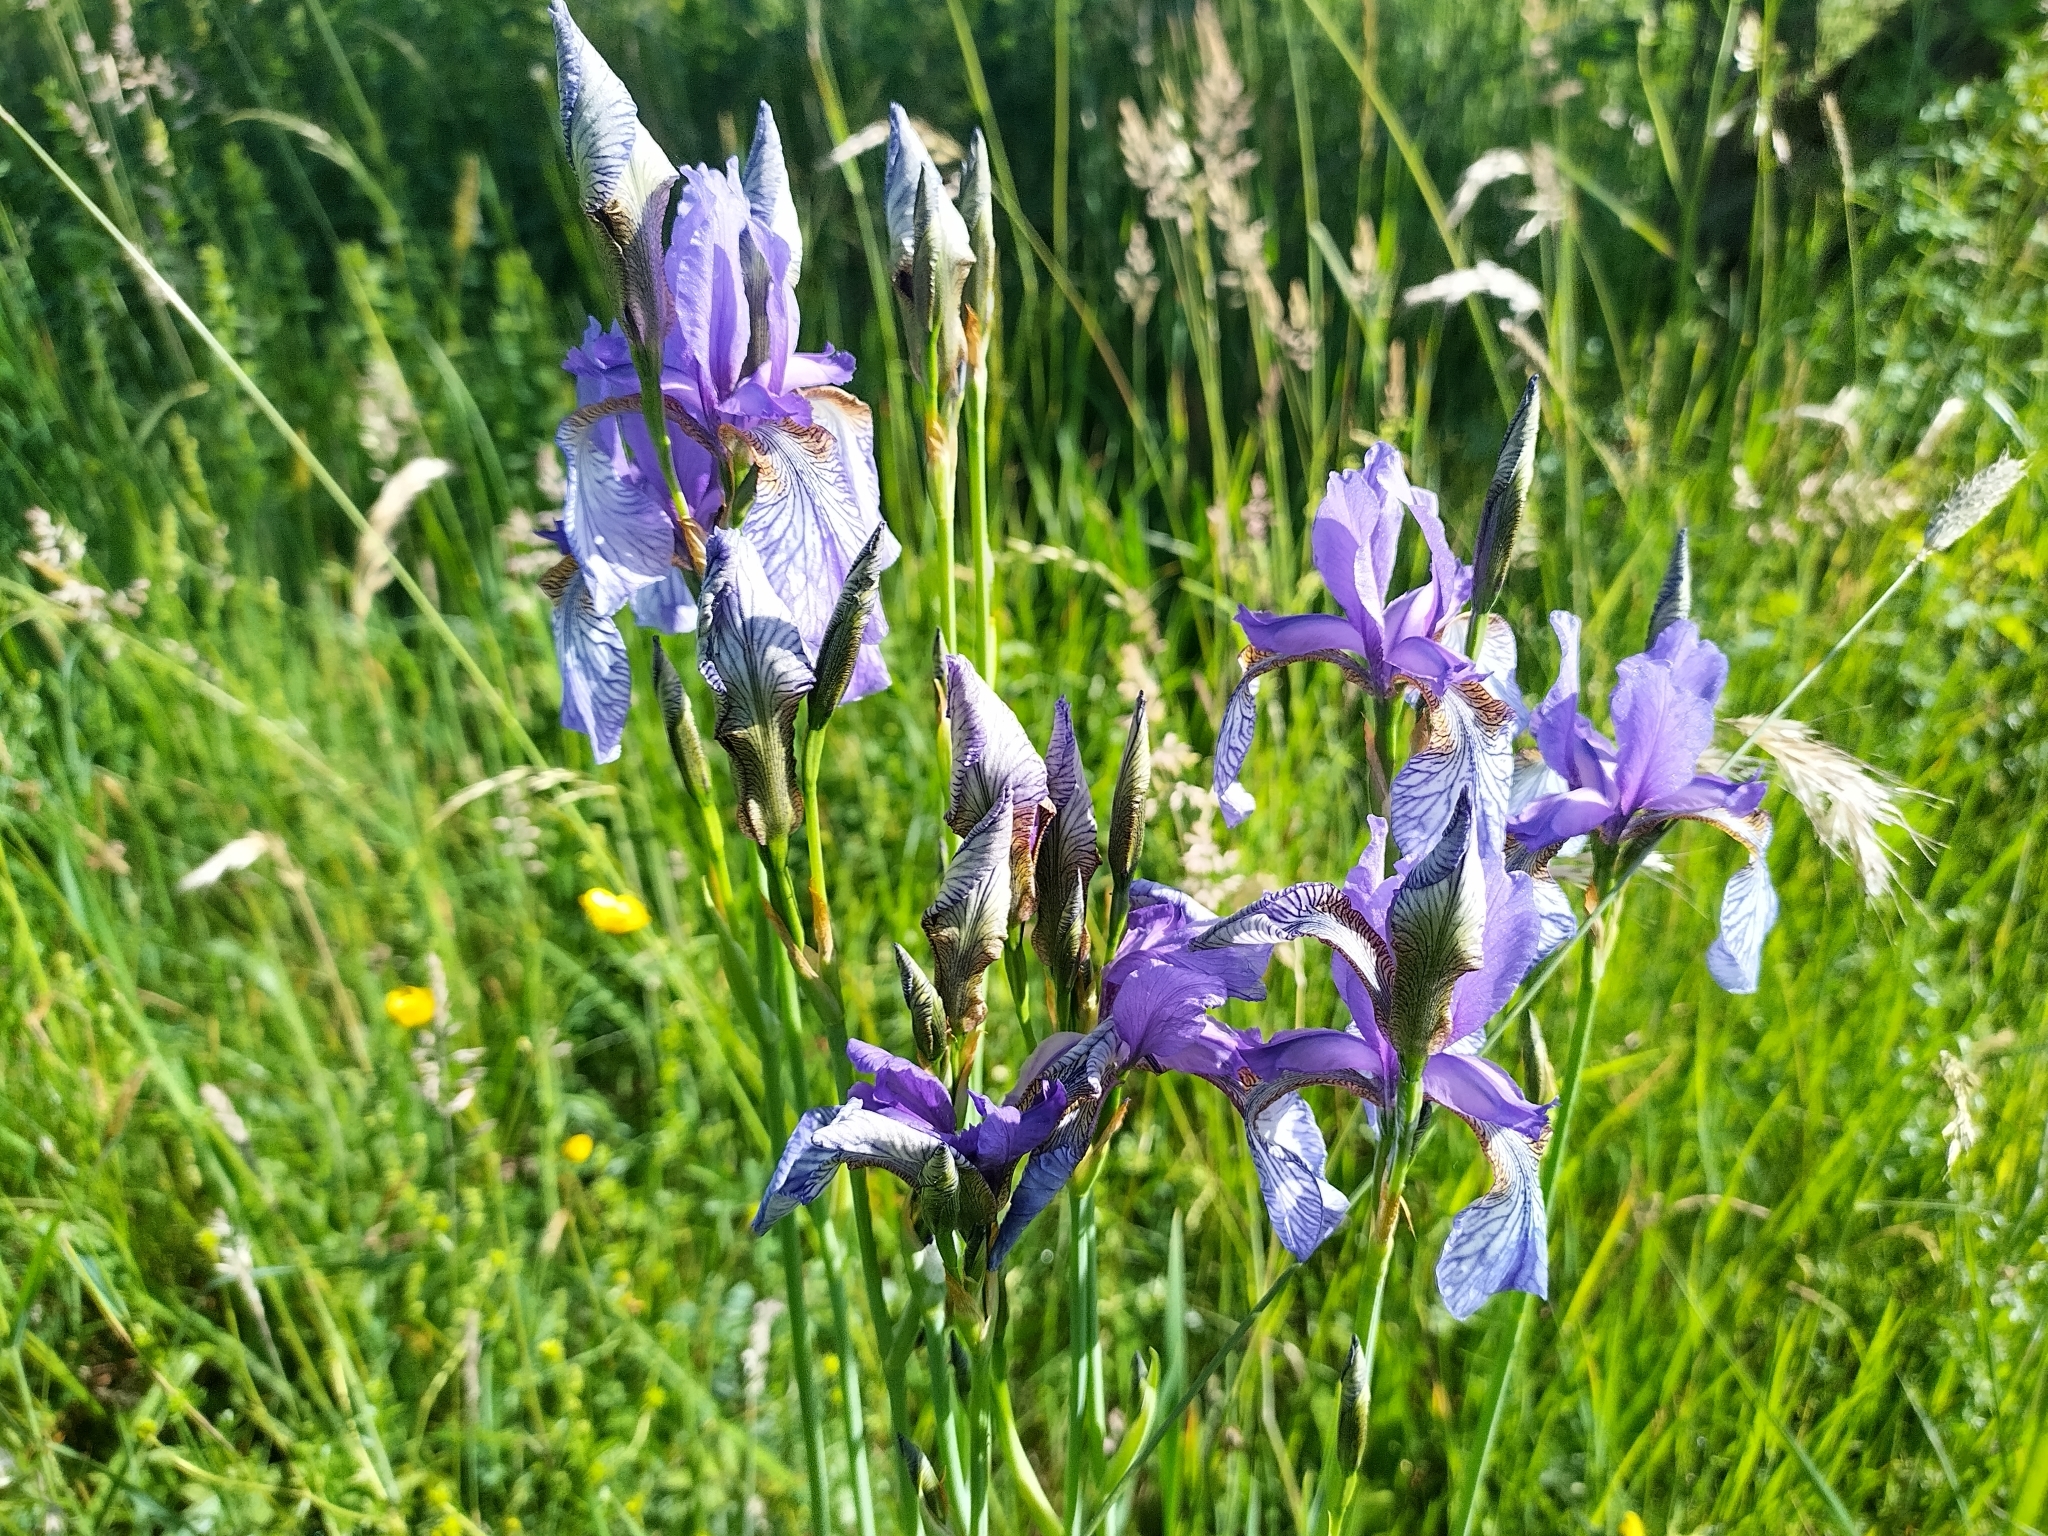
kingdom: Plantae
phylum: Tracheophyta
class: Liliopsida
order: Asparagales
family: Iridaceae
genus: Iris
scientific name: Iris sibirica
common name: Siberian iris
